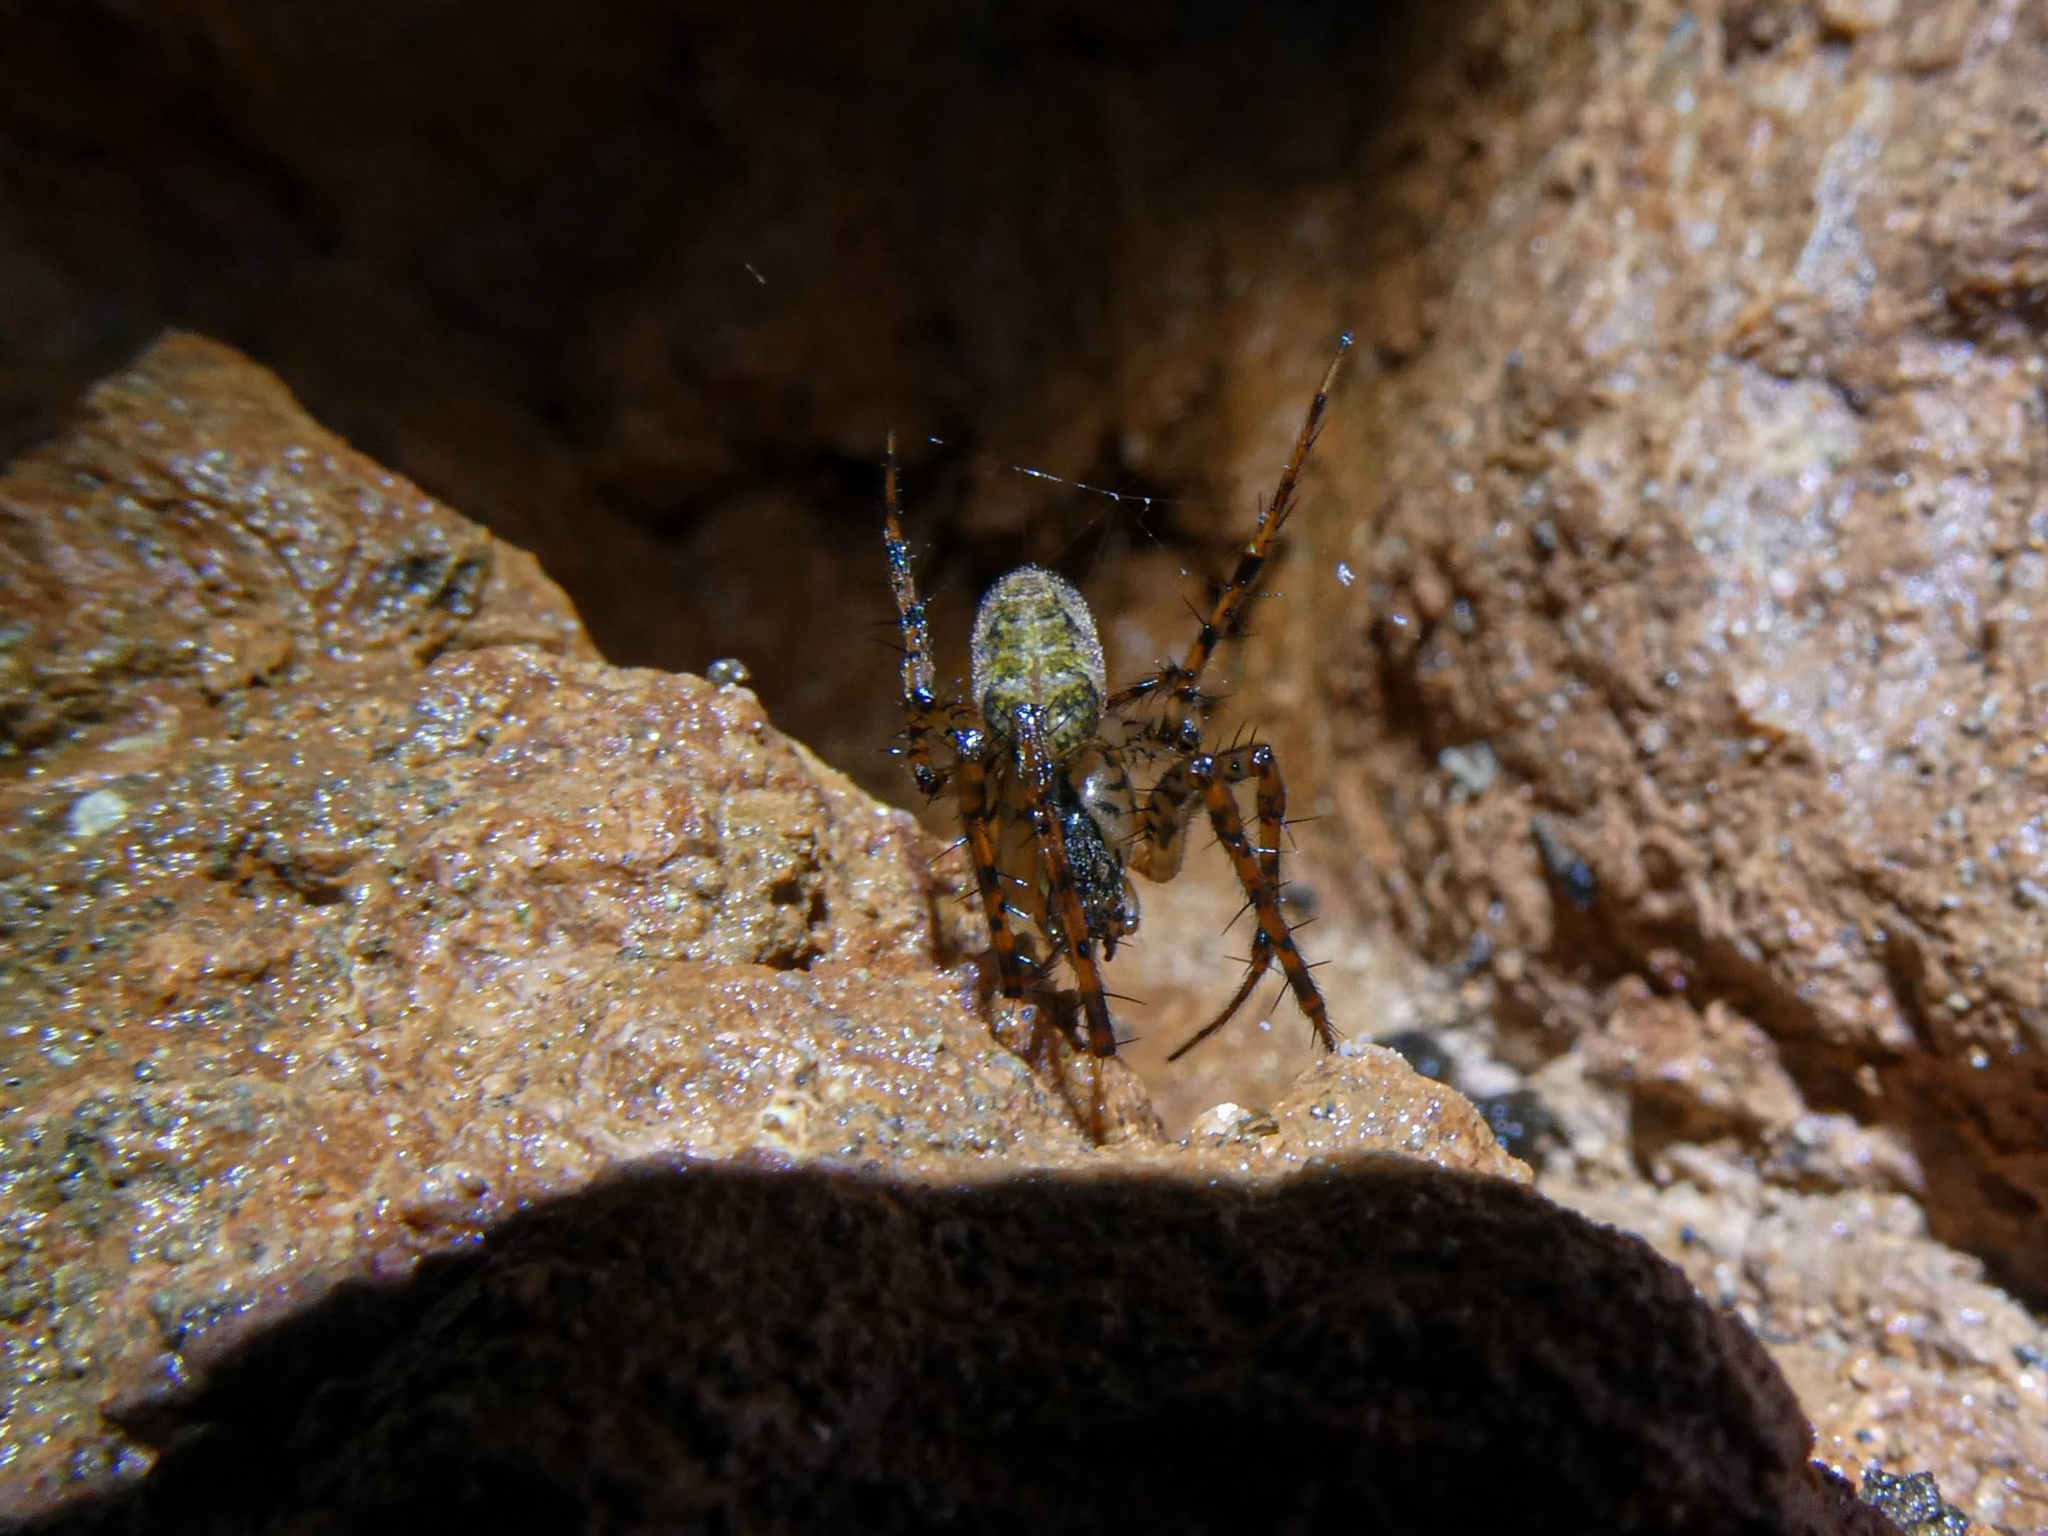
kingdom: Animalia
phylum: Arthropoda
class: Arachnida
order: Araneae
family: Tetragnathidae
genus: Metellina
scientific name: Metellina merianae
